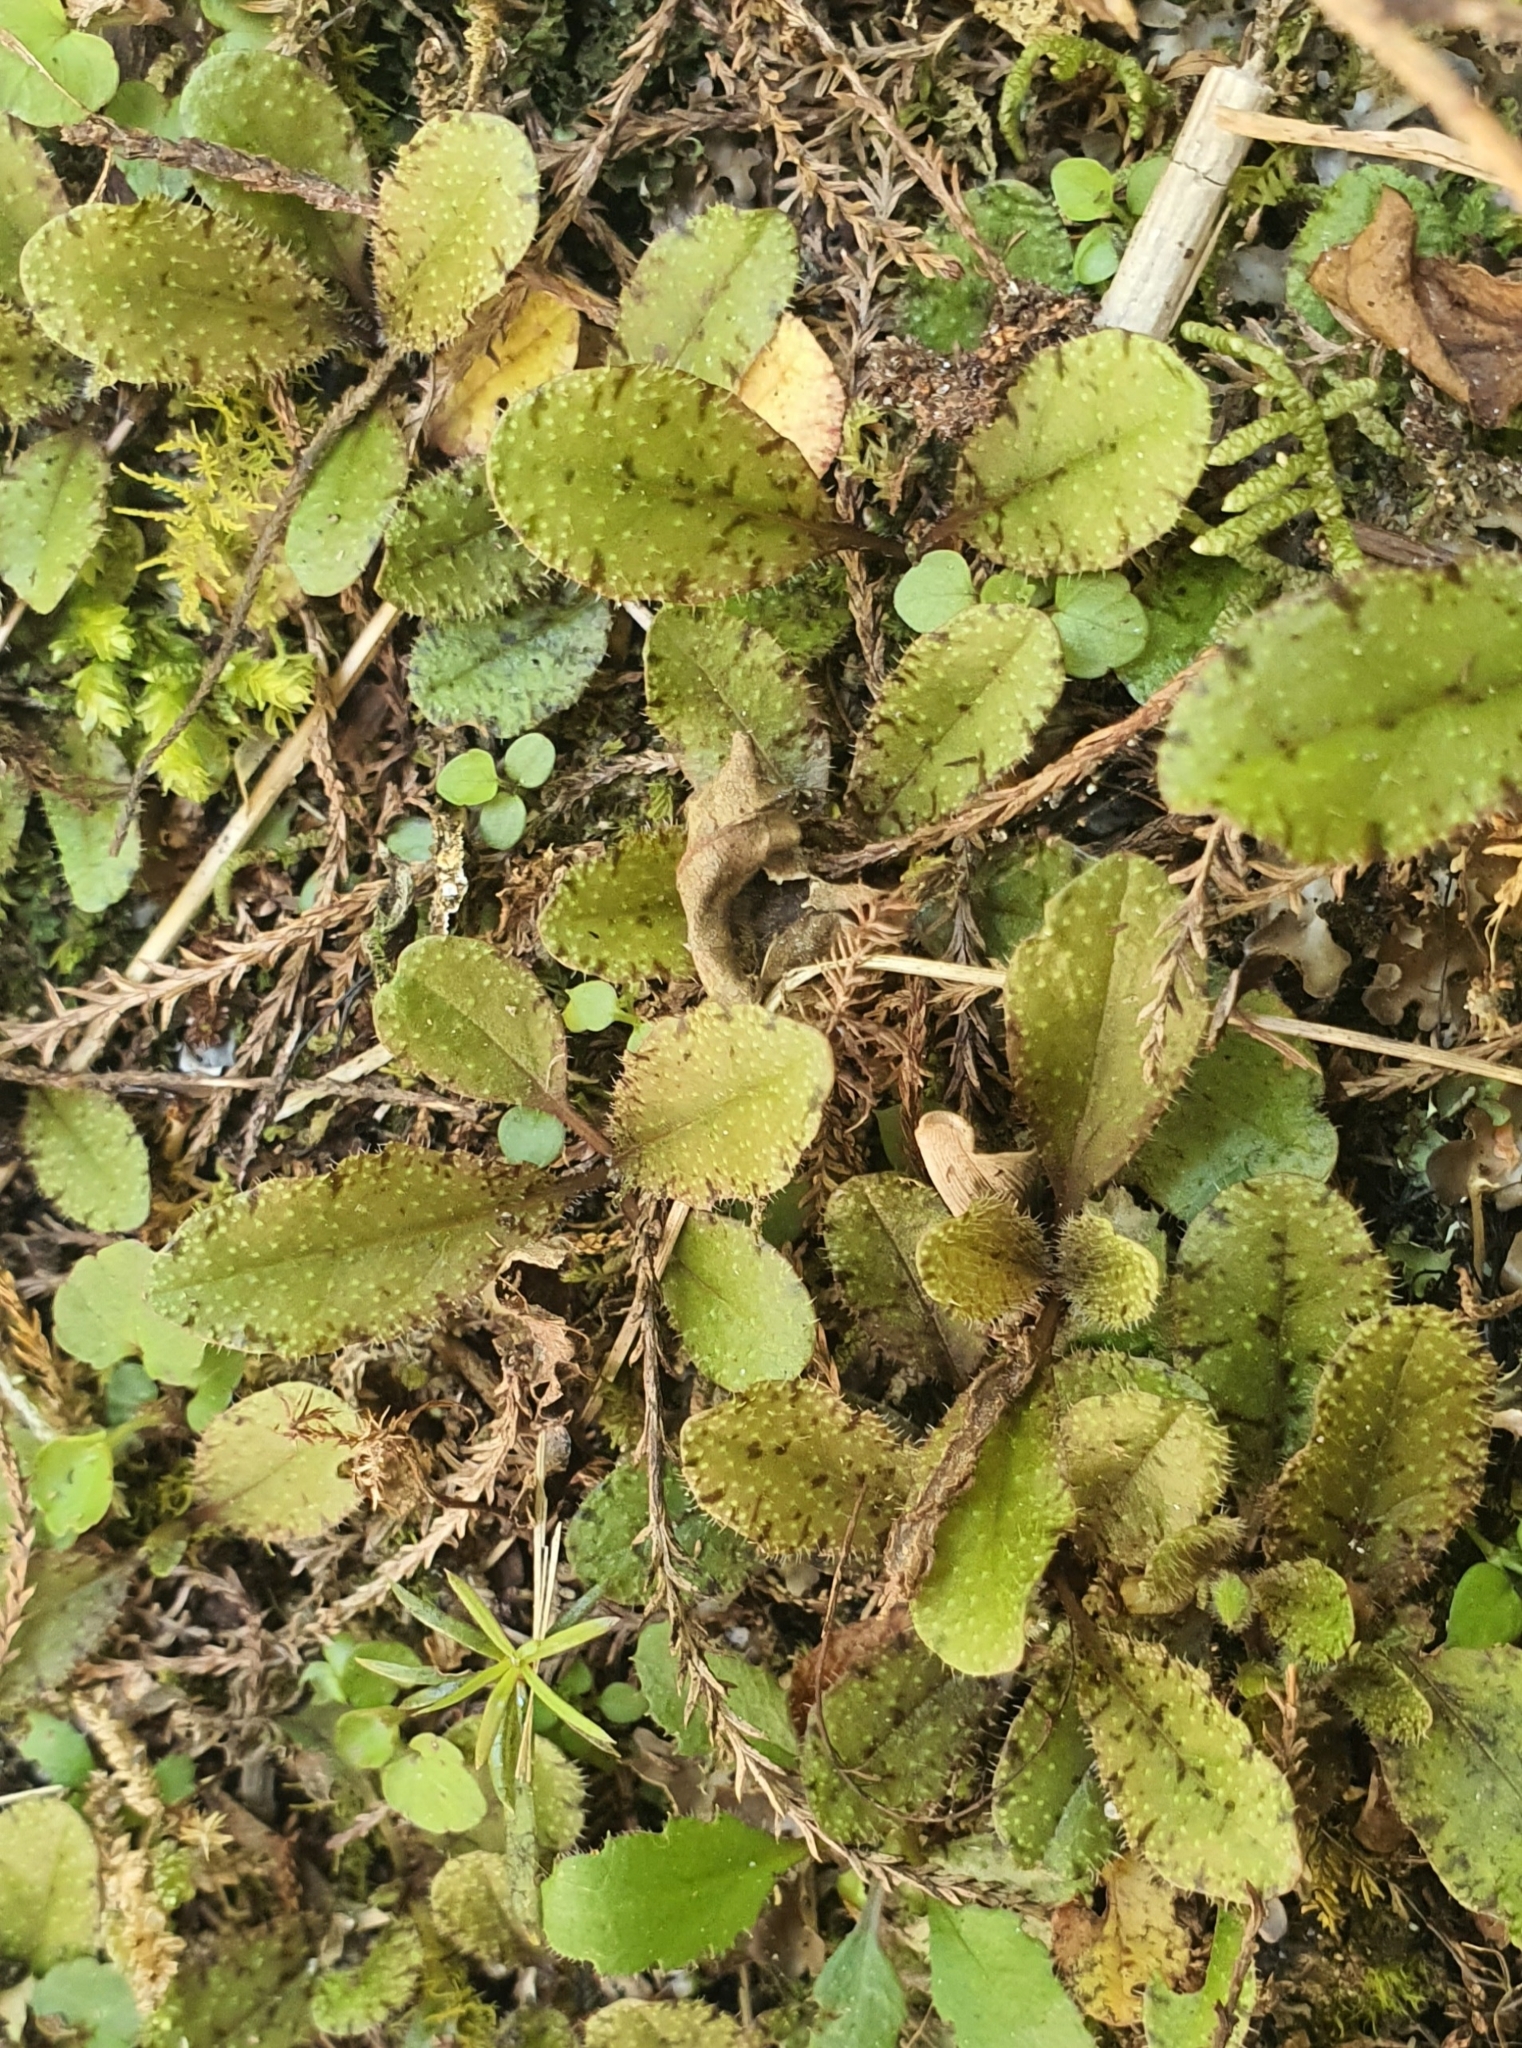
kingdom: Plantae
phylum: Tracheophyta
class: Magnoliopsida
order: Lamiales
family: Mazaceae
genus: Mazus
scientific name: Mazus radicans
